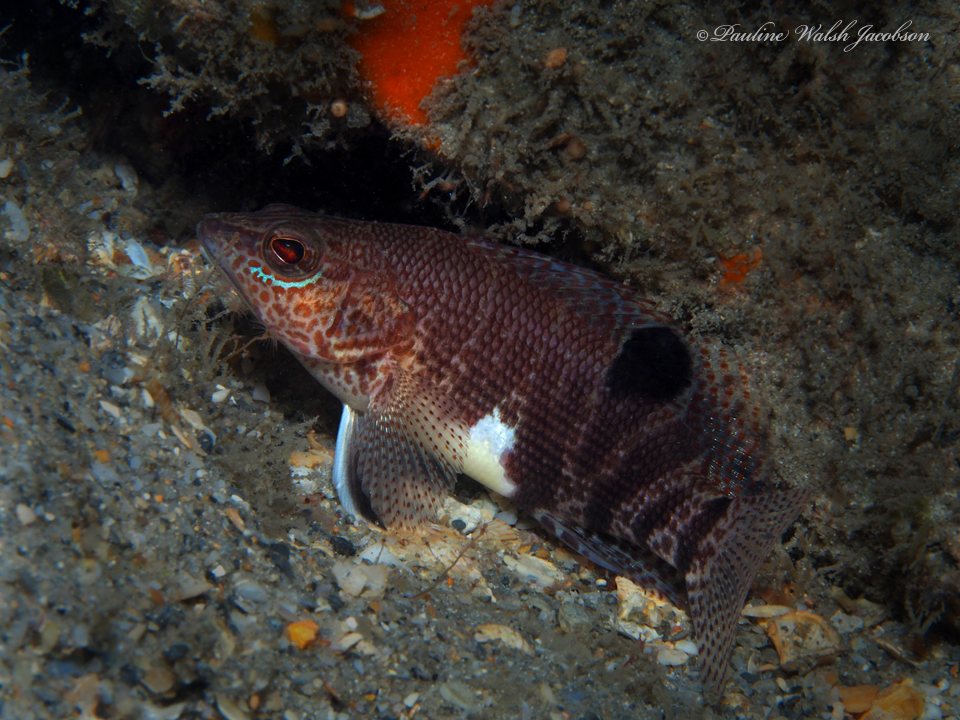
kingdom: Animalia
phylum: Chordata
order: Perciformes
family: Serranidae
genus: Serranus
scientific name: Serranus subligarius
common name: Belted sandfish
